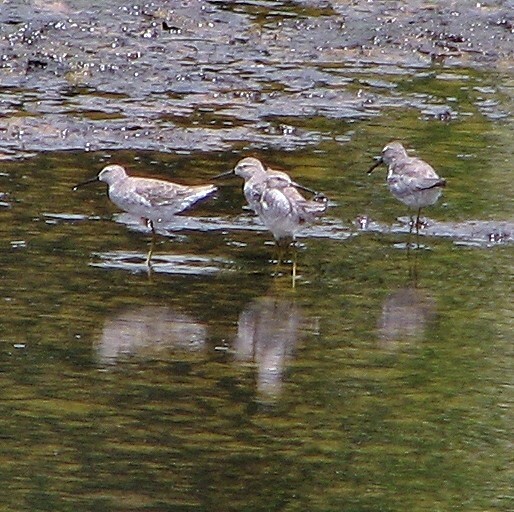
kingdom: Animalia
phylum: Chordata
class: Aves
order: Charadriiformes
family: Scolopacidae
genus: Calidris
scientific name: Calidris himantopus
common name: Stilt sandpiper
